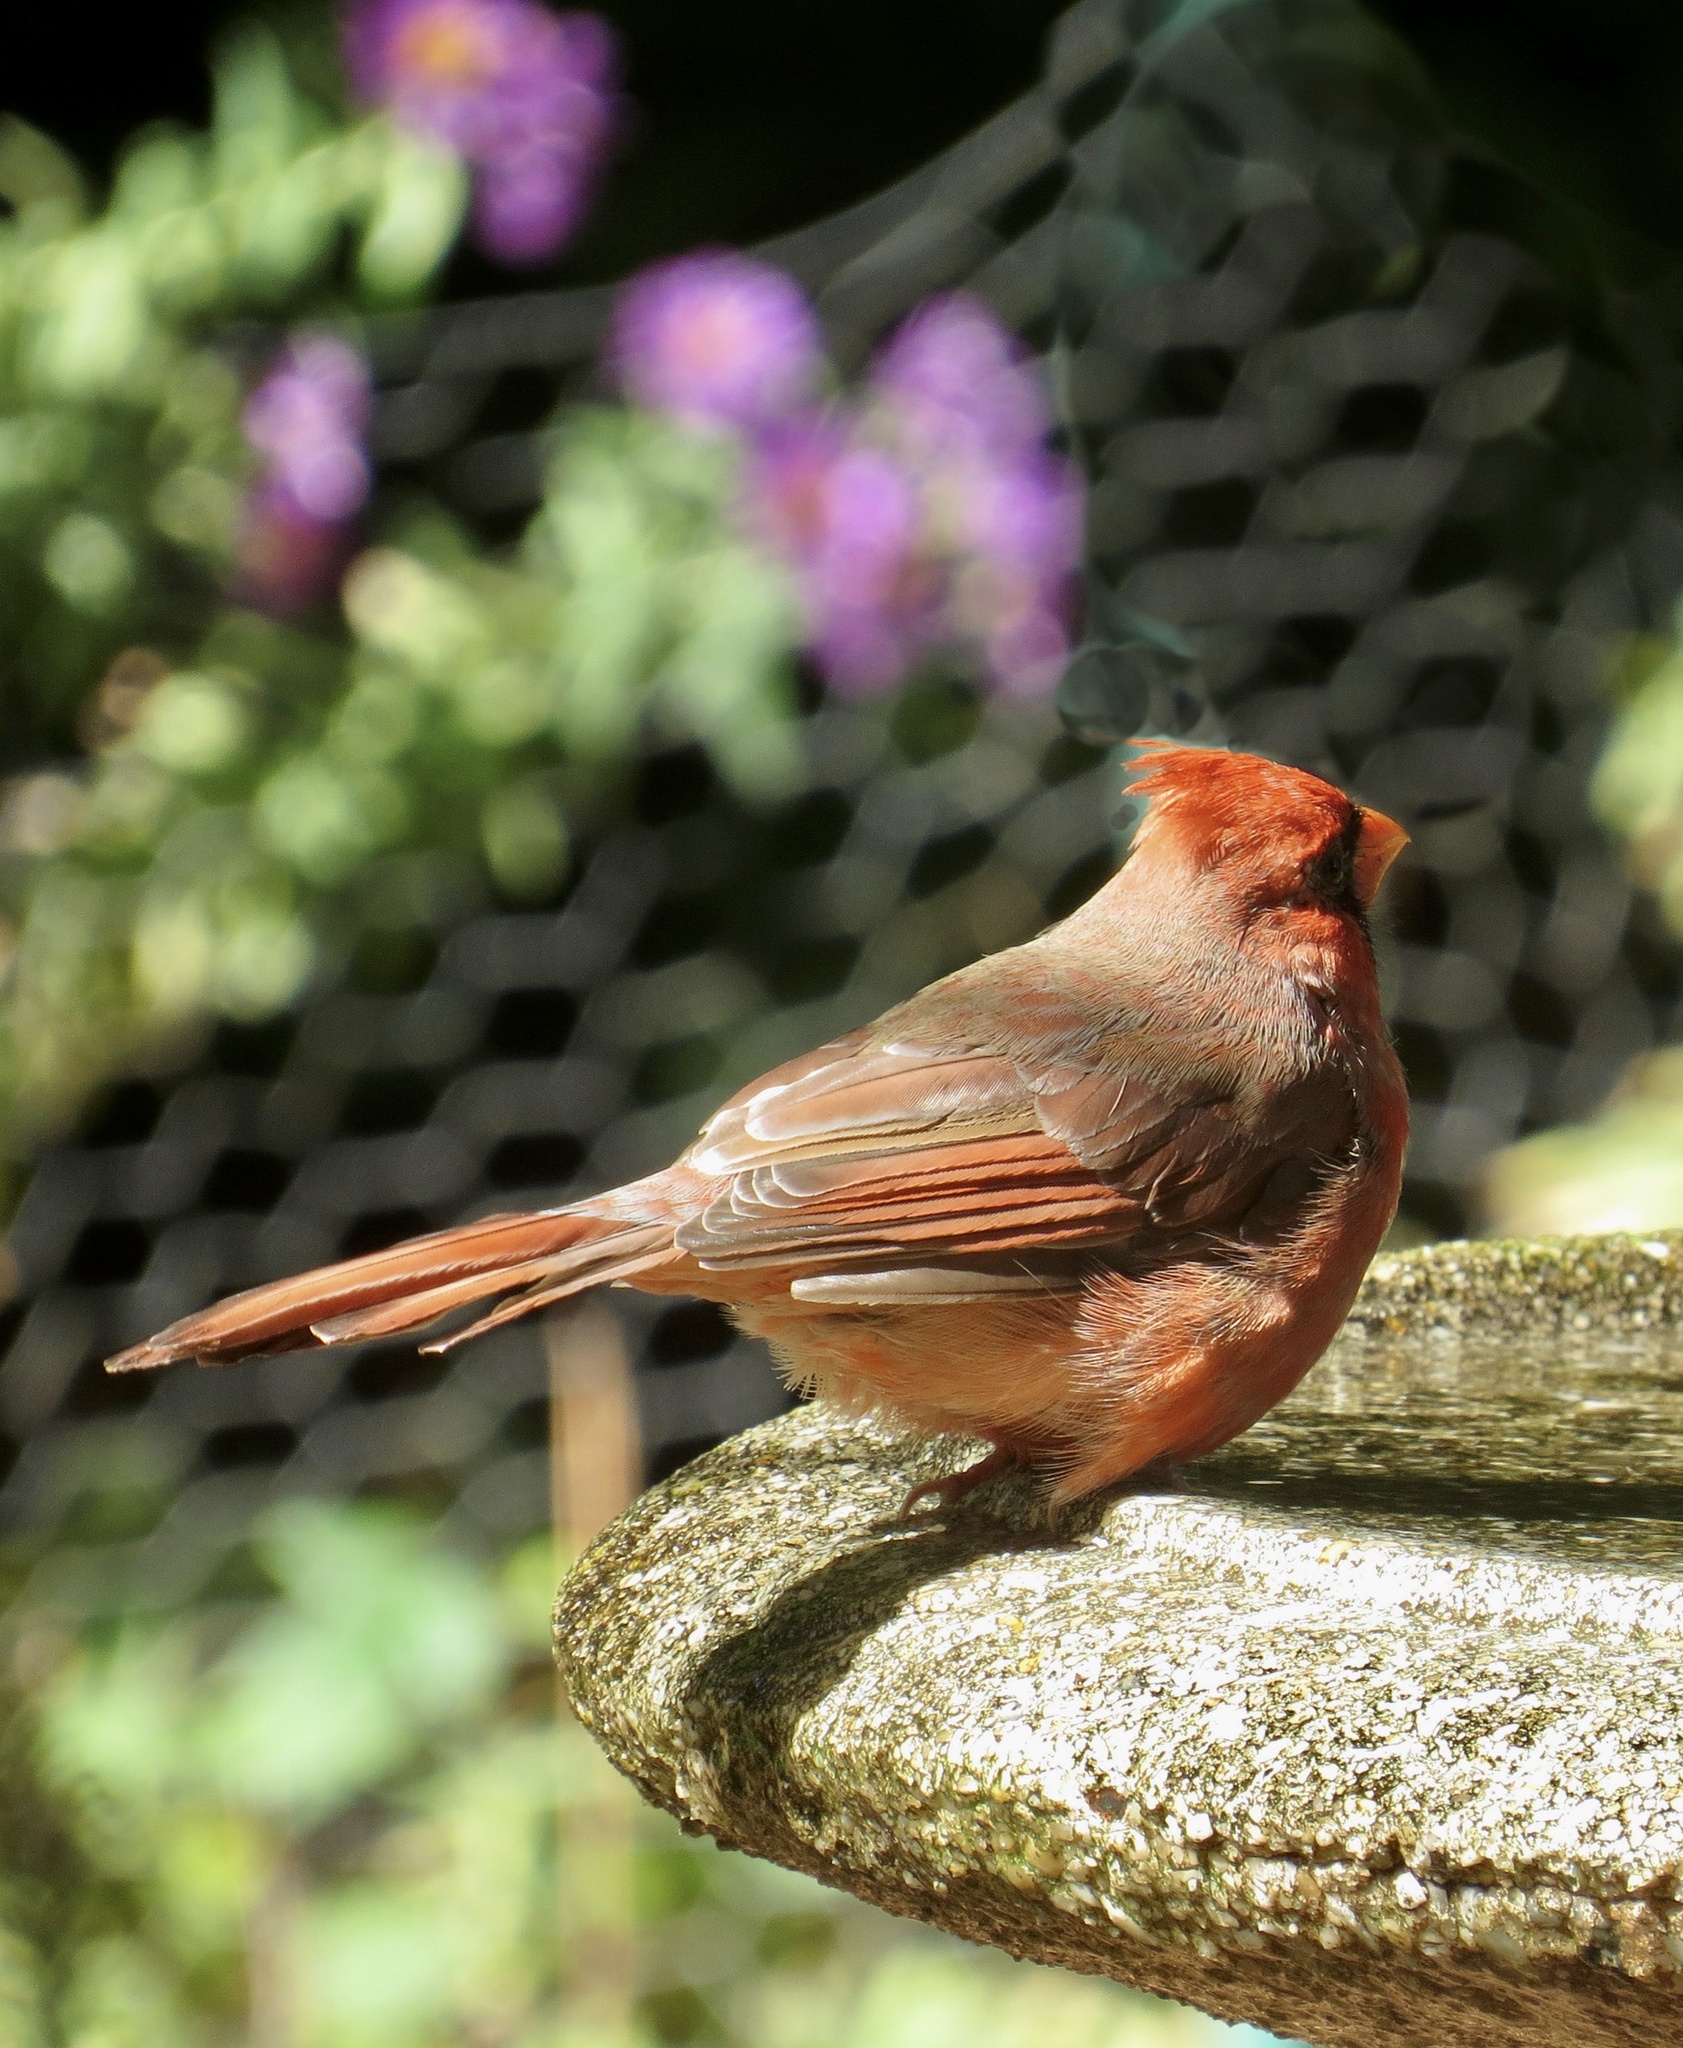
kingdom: Animalia
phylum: Chordata
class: Aves
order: Passeriformes
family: Cardinalidae
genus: Cardinalis
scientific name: Cardinalis cardinalis
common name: Northern cardinal
